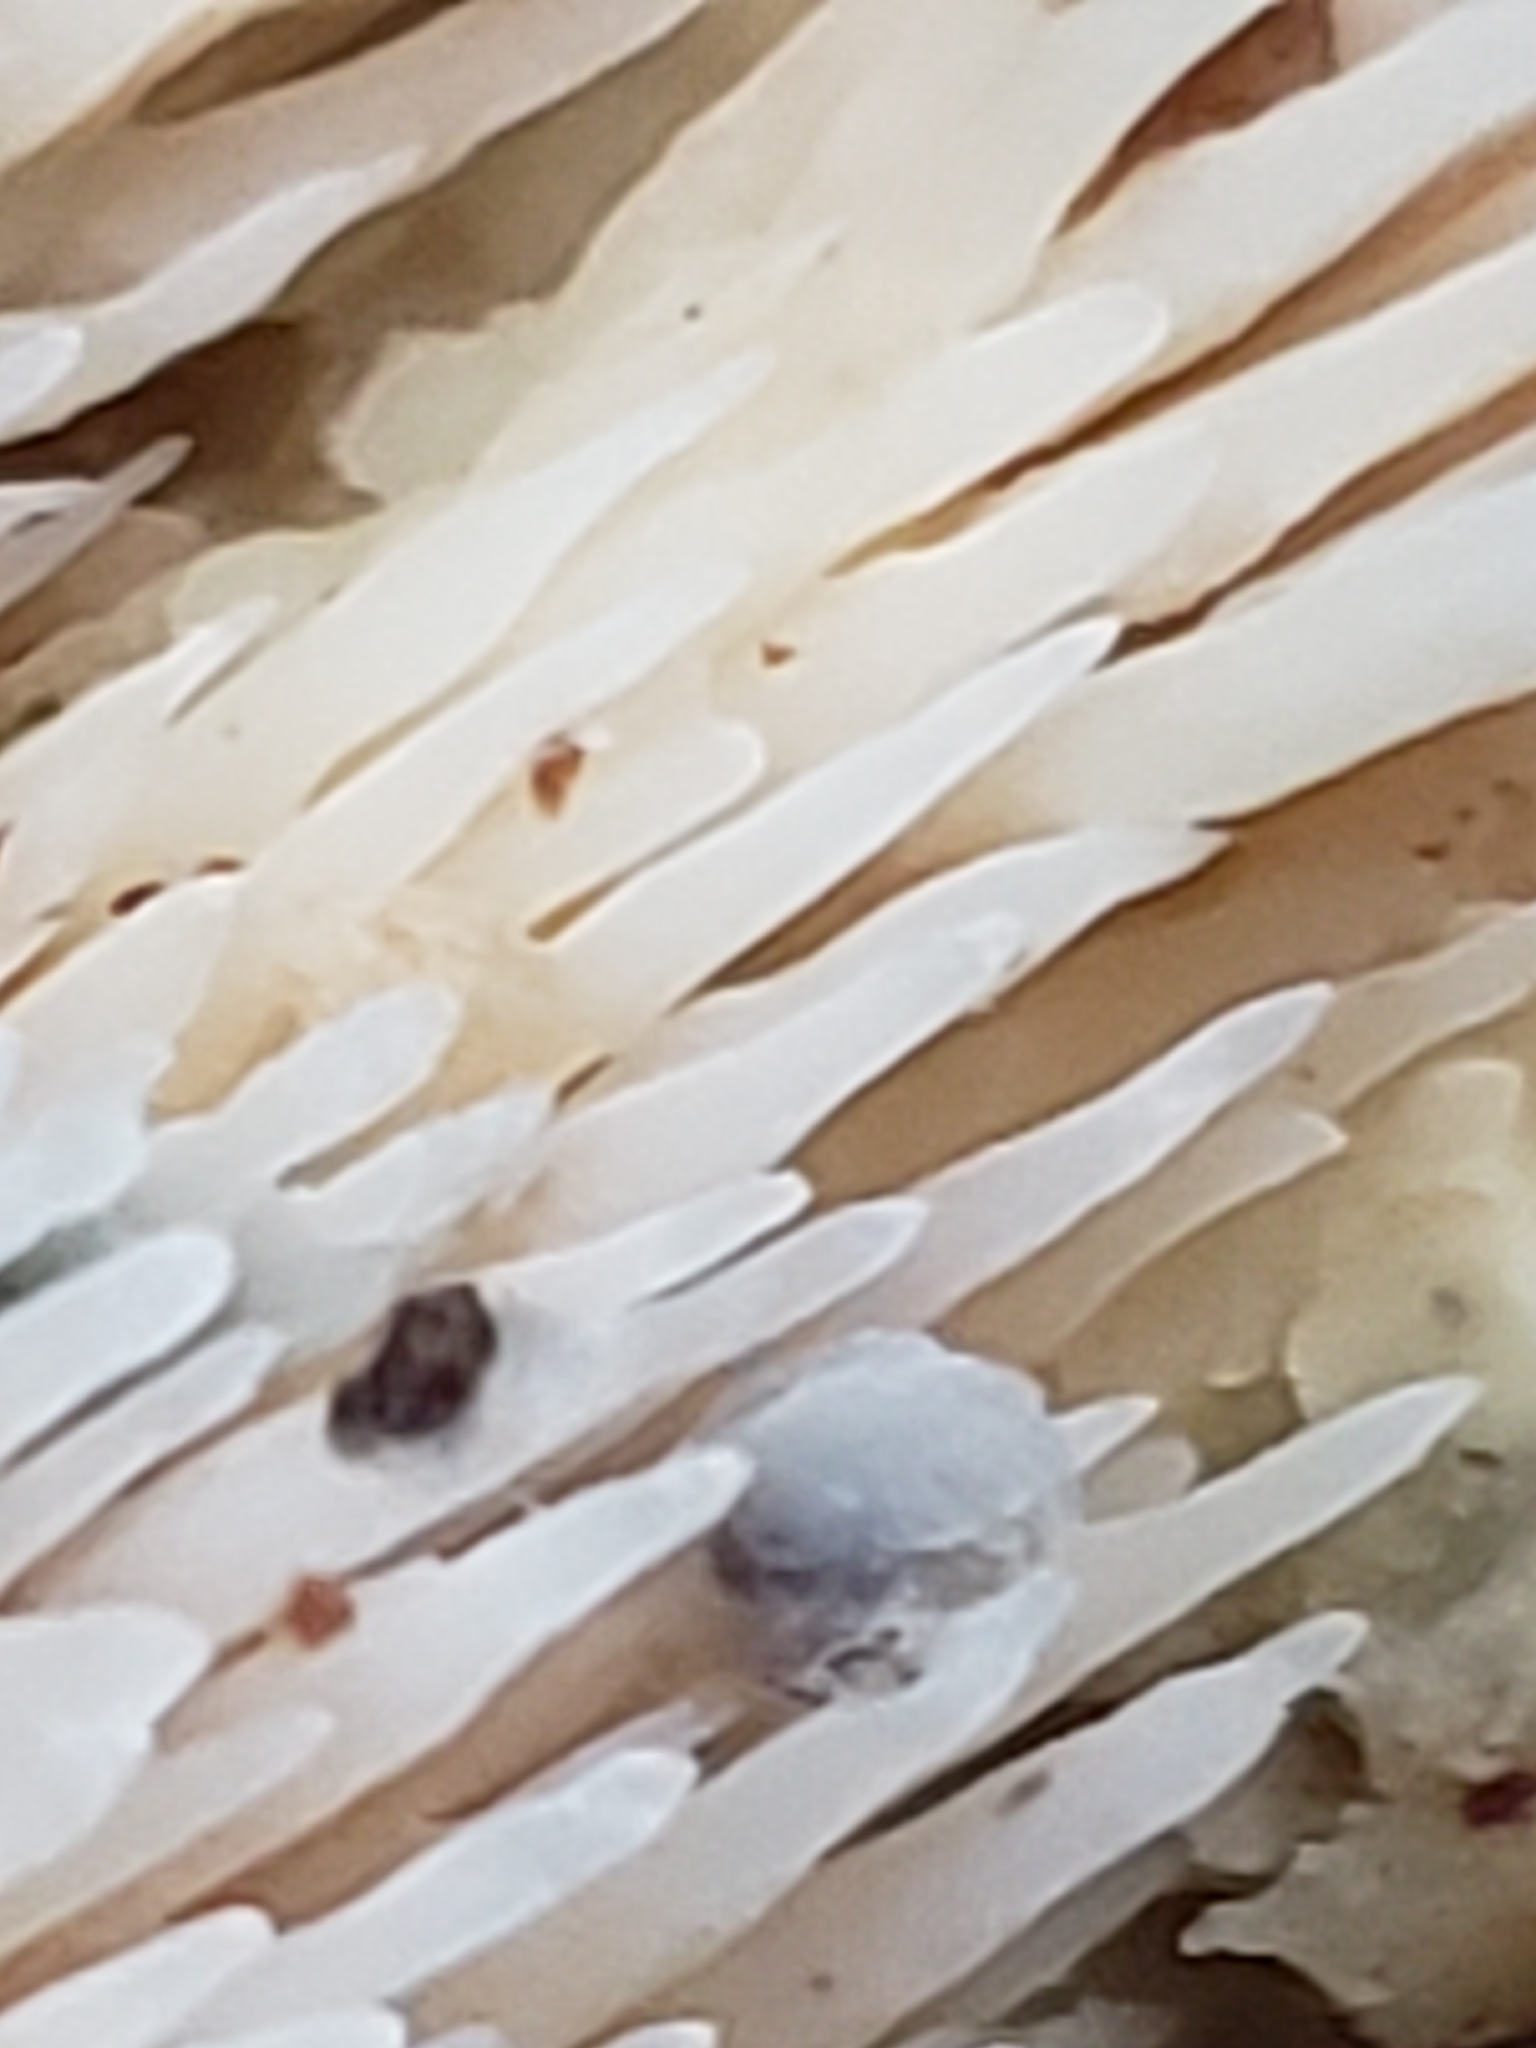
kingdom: Fungi
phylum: Basidiomycota
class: Agaricomycetes
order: Agaricales
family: Radulomycetaceae
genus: Radulomyces
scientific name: Radulomyces copelandii
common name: Asian beauty
